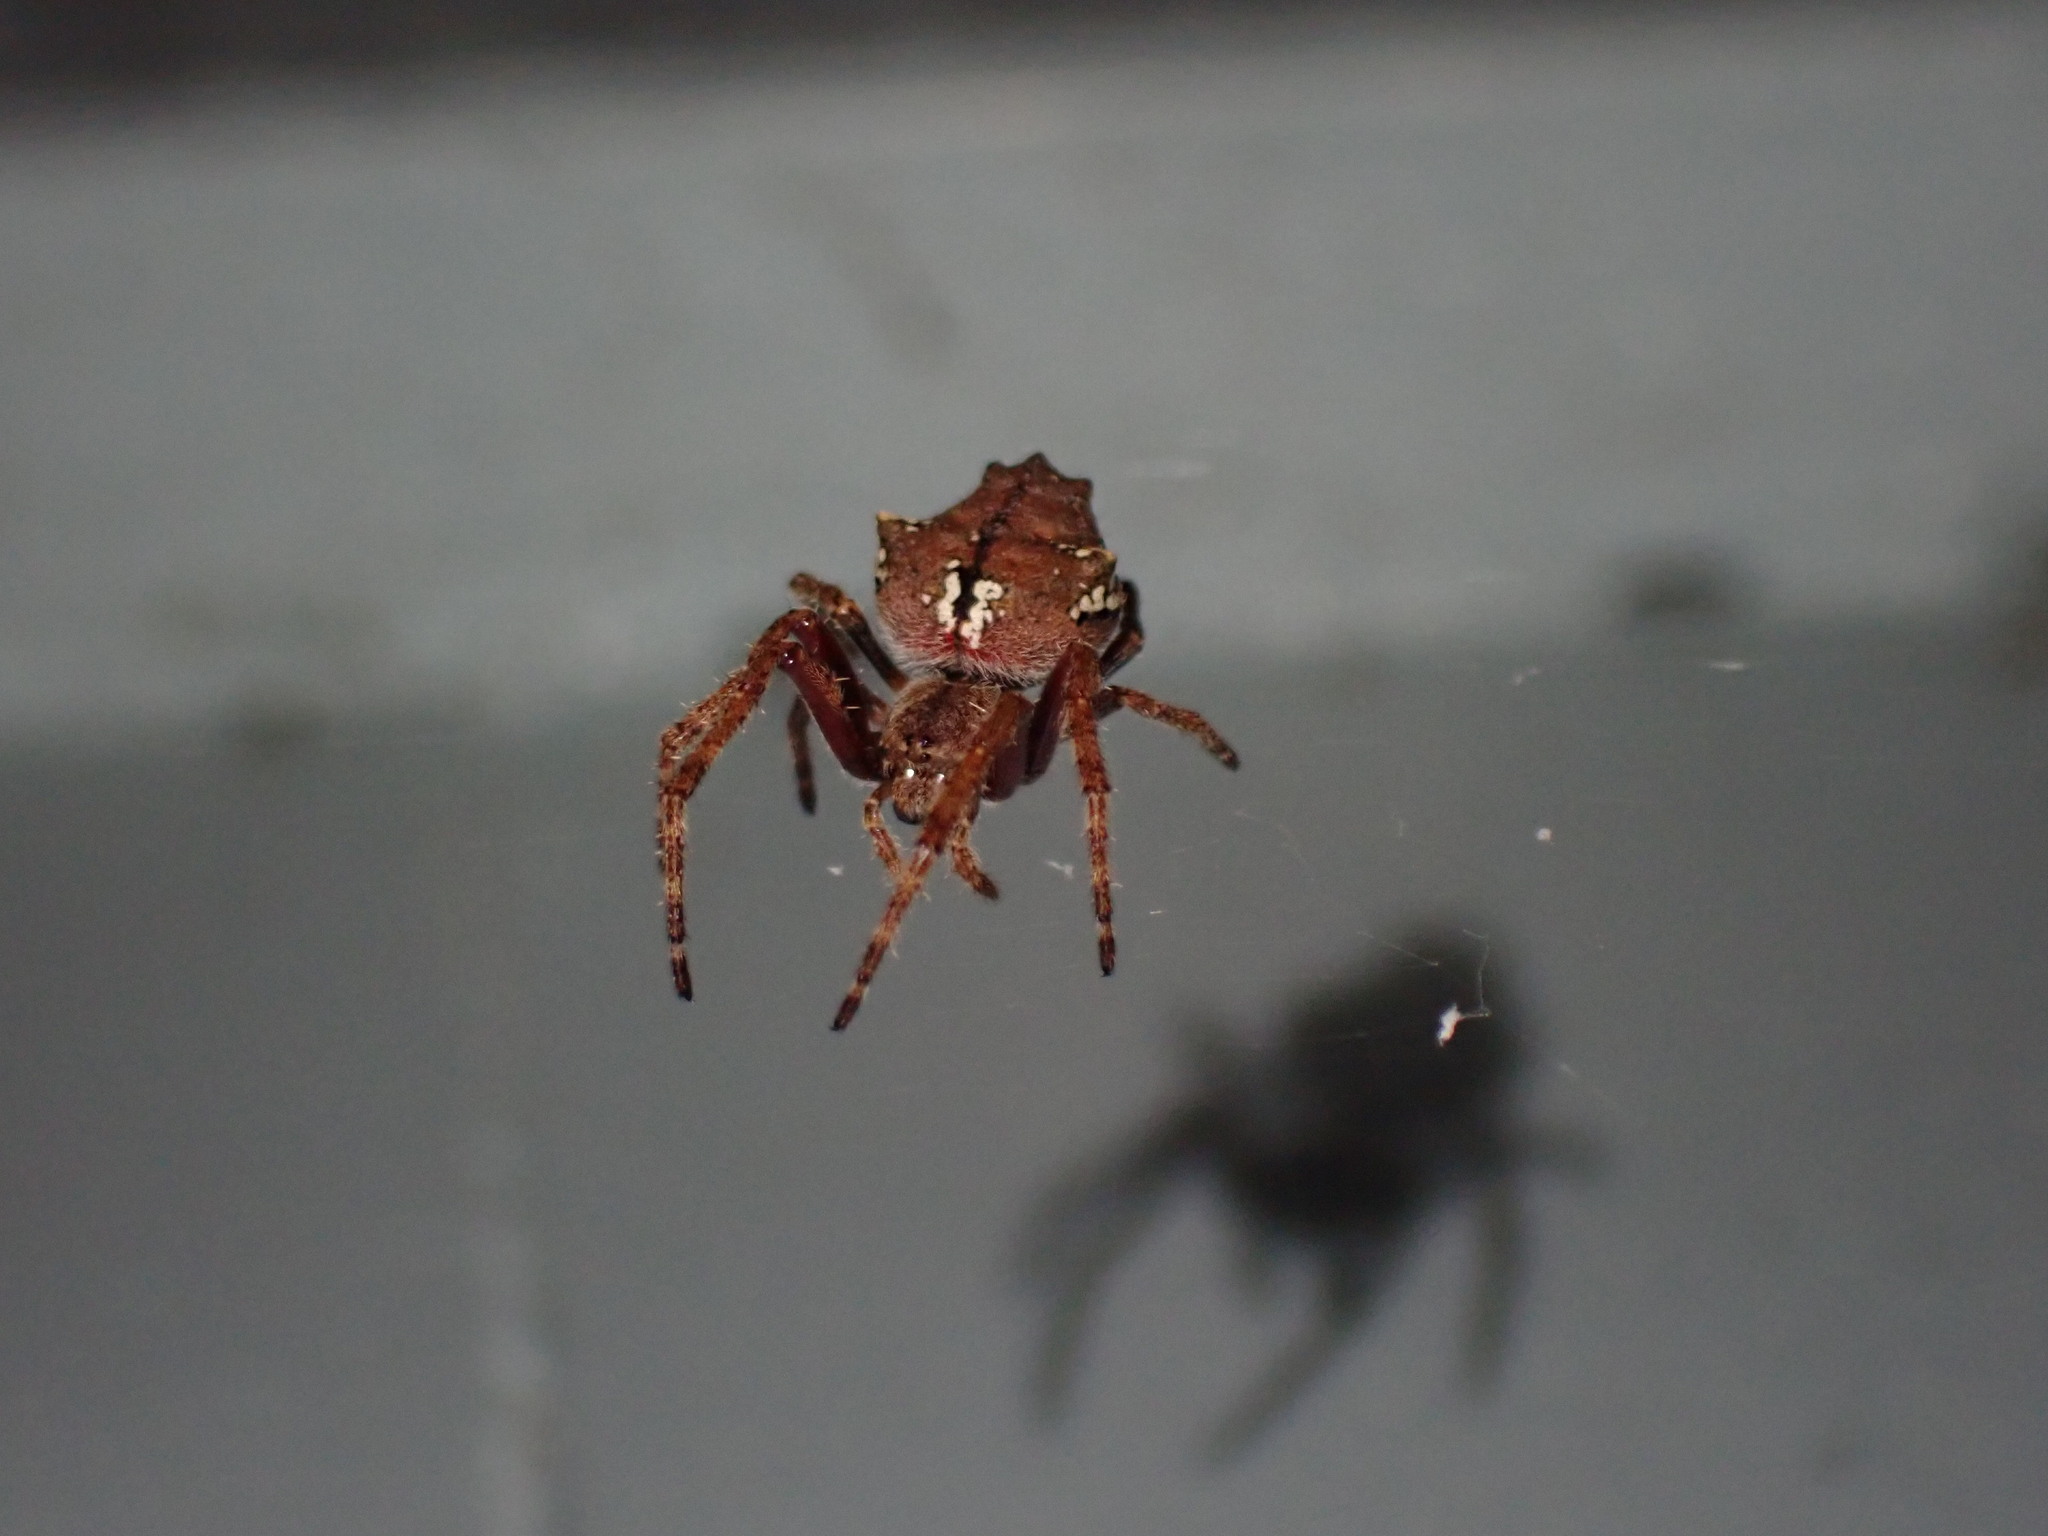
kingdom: Animalia
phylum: Arthropoda
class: Arachnida
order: Araneae
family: Araneidae
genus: Eriophora
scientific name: Eriophora pustulosa
